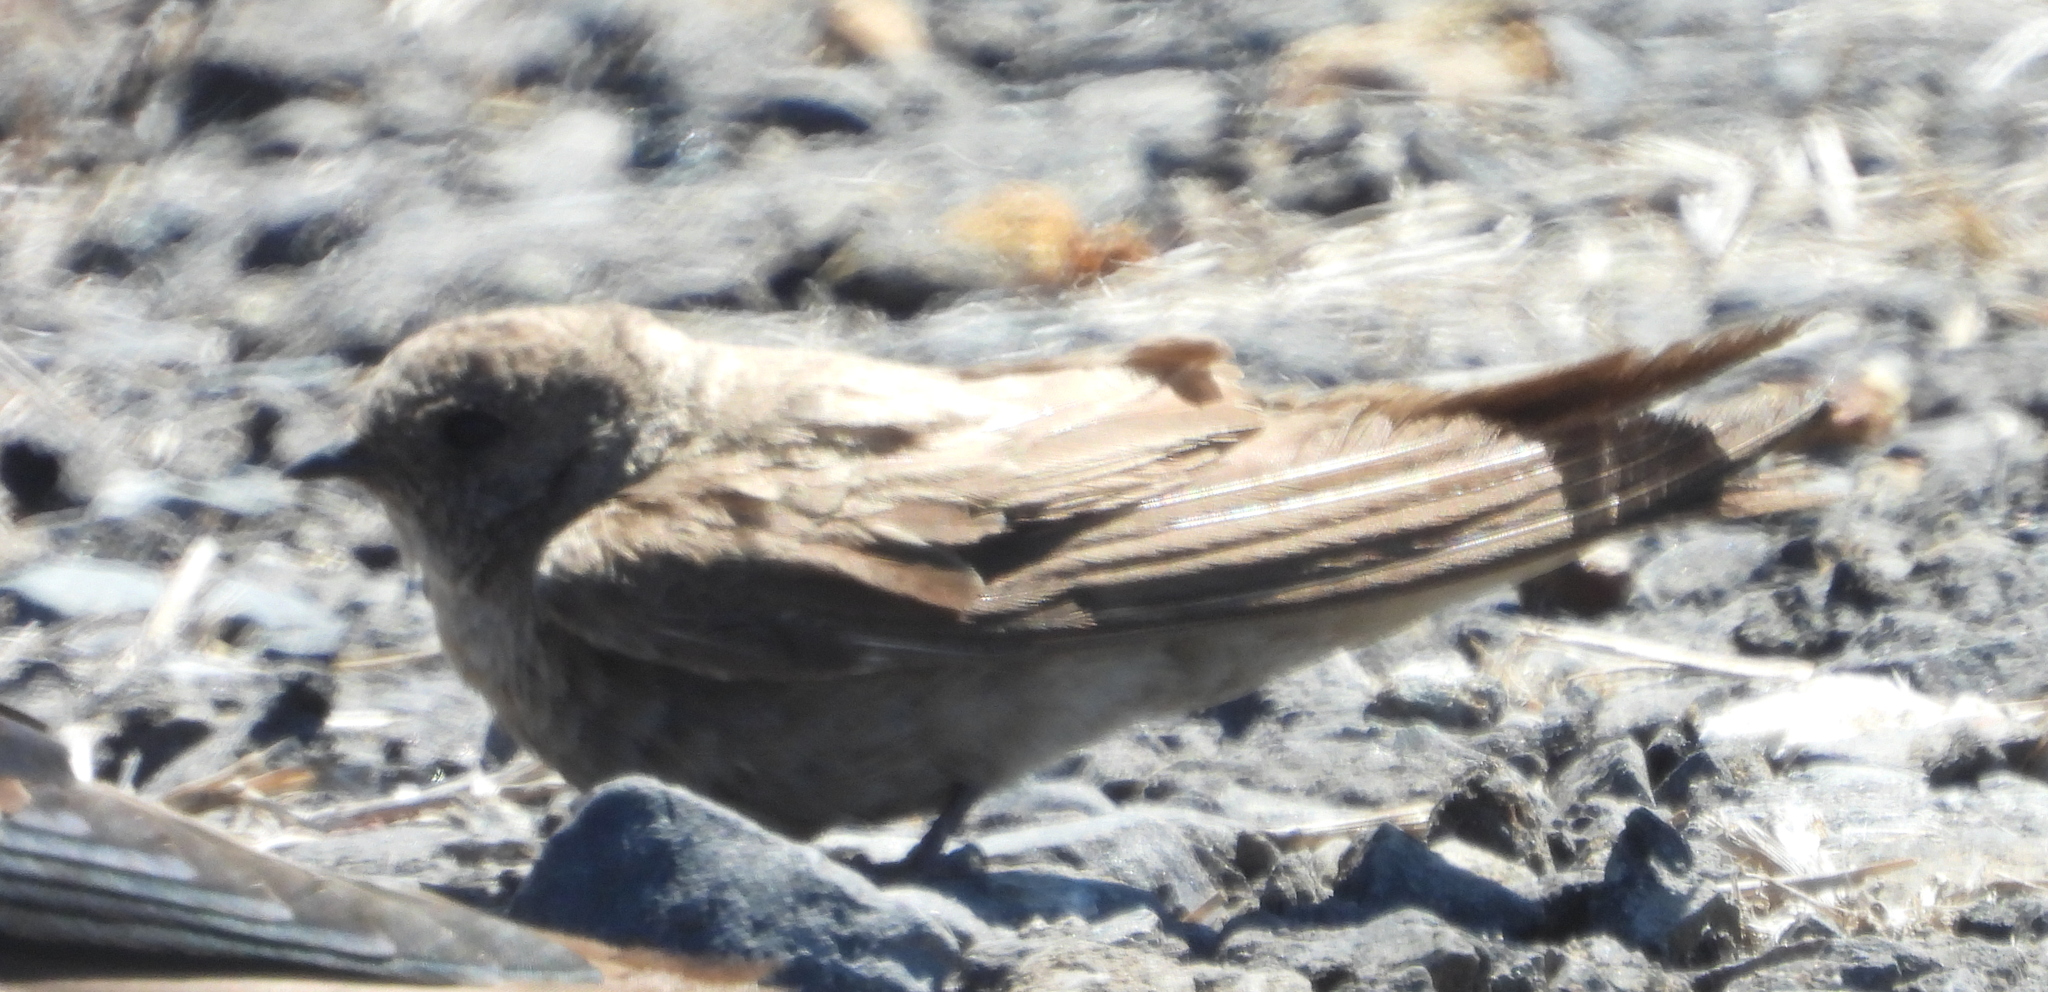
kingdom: Animalia
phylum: Chordata
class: Aves
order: Passeriformes
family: Hirundinidae
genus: Riparia
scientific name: Riparia paludicola
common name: Brown-throated martin
